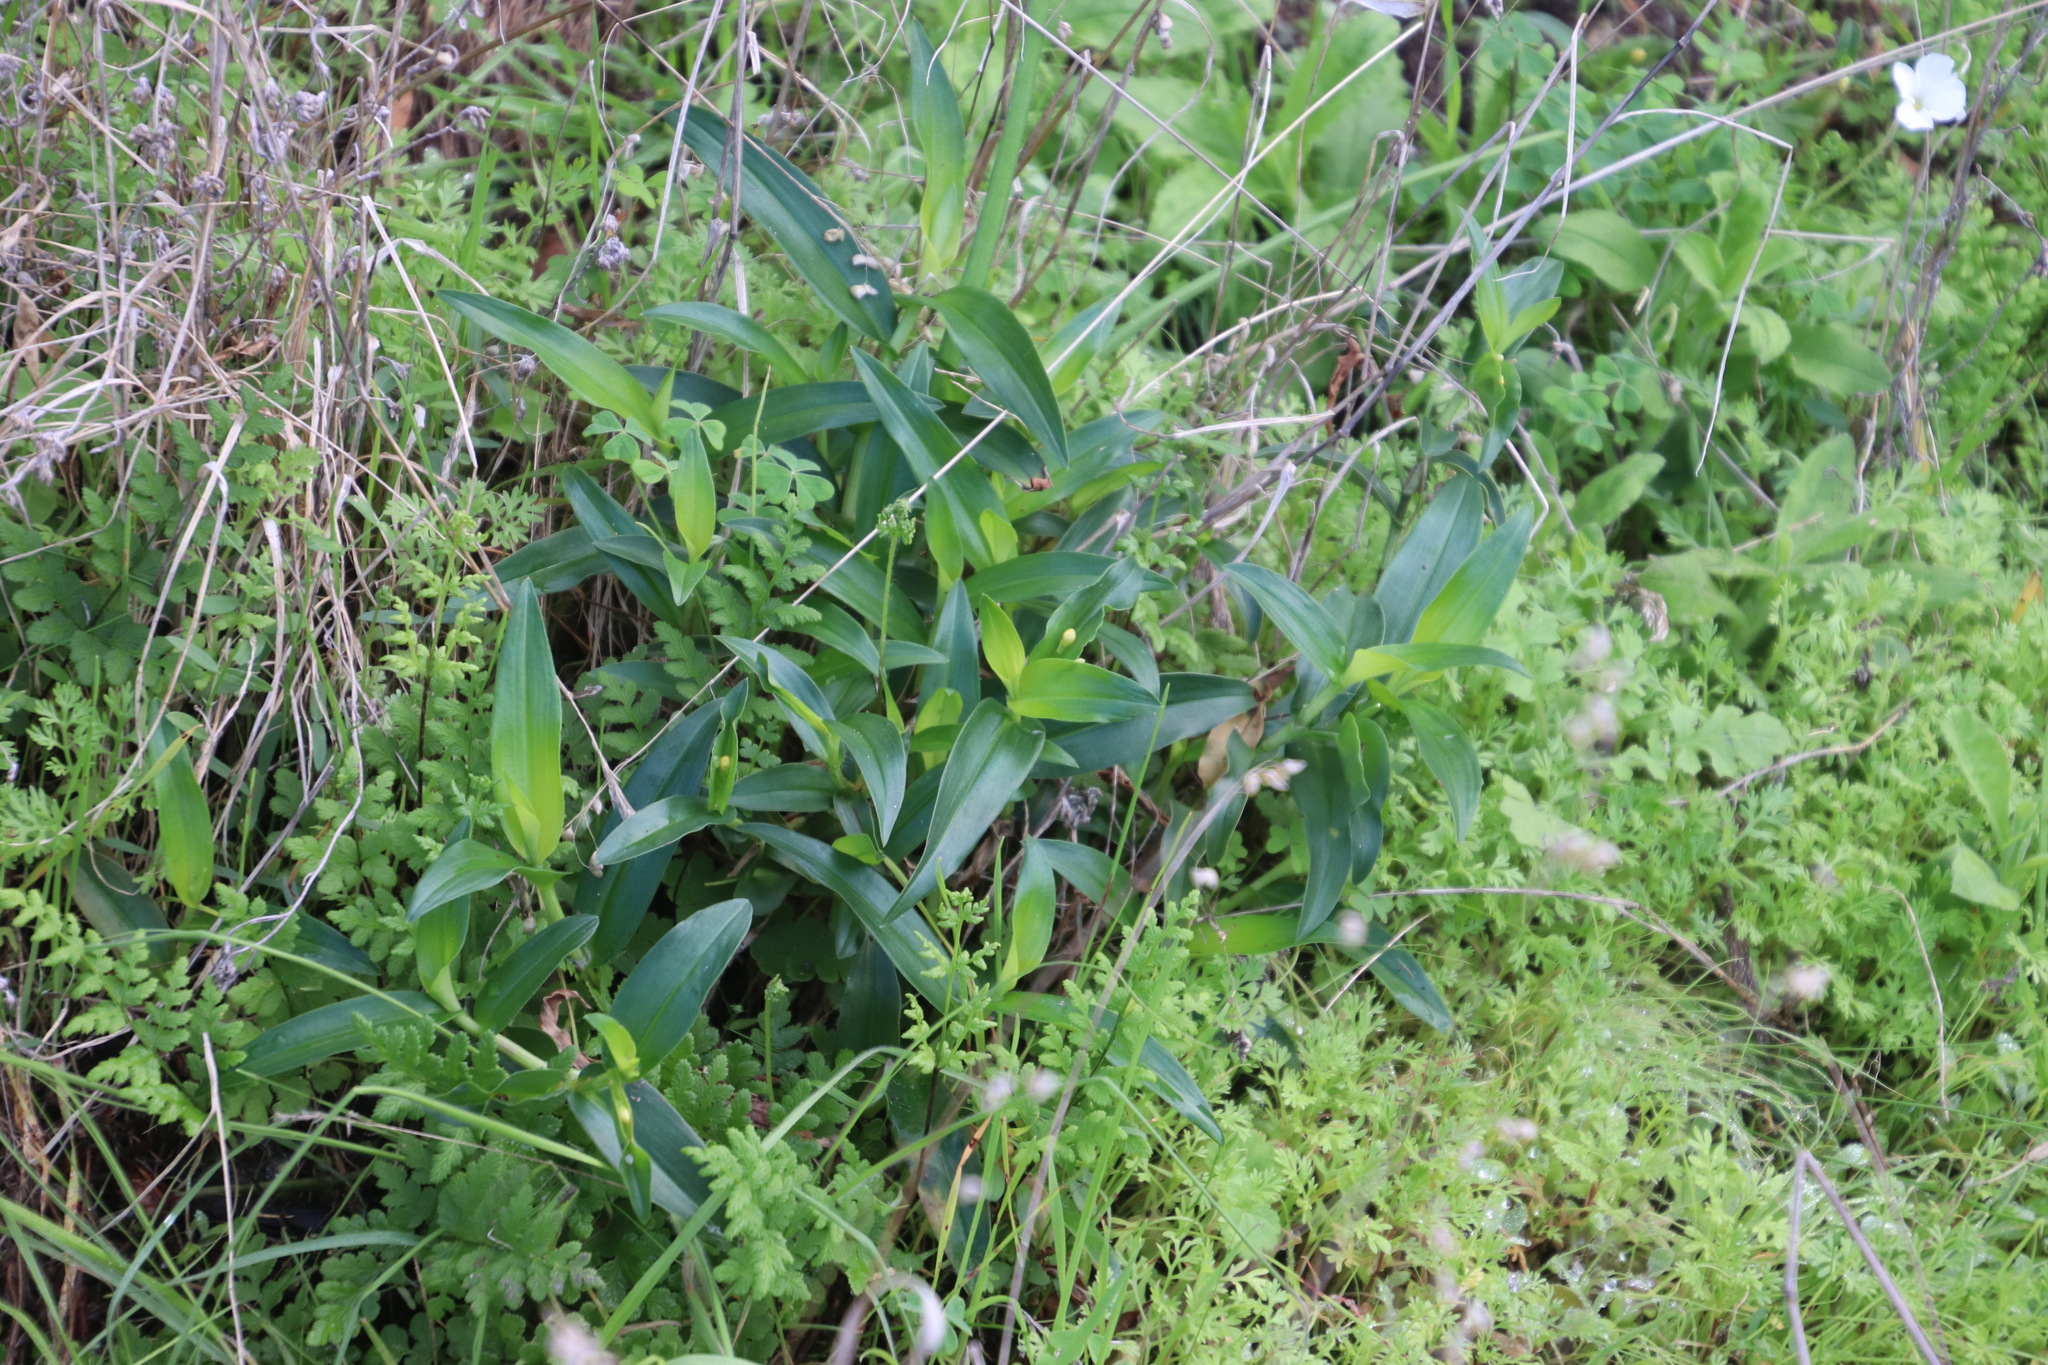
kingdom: Plantae
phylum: Tracheophyta
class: Liliopsida
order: Commelinales
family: Commelinaceae
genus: Commelina
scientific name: Commelina africana
